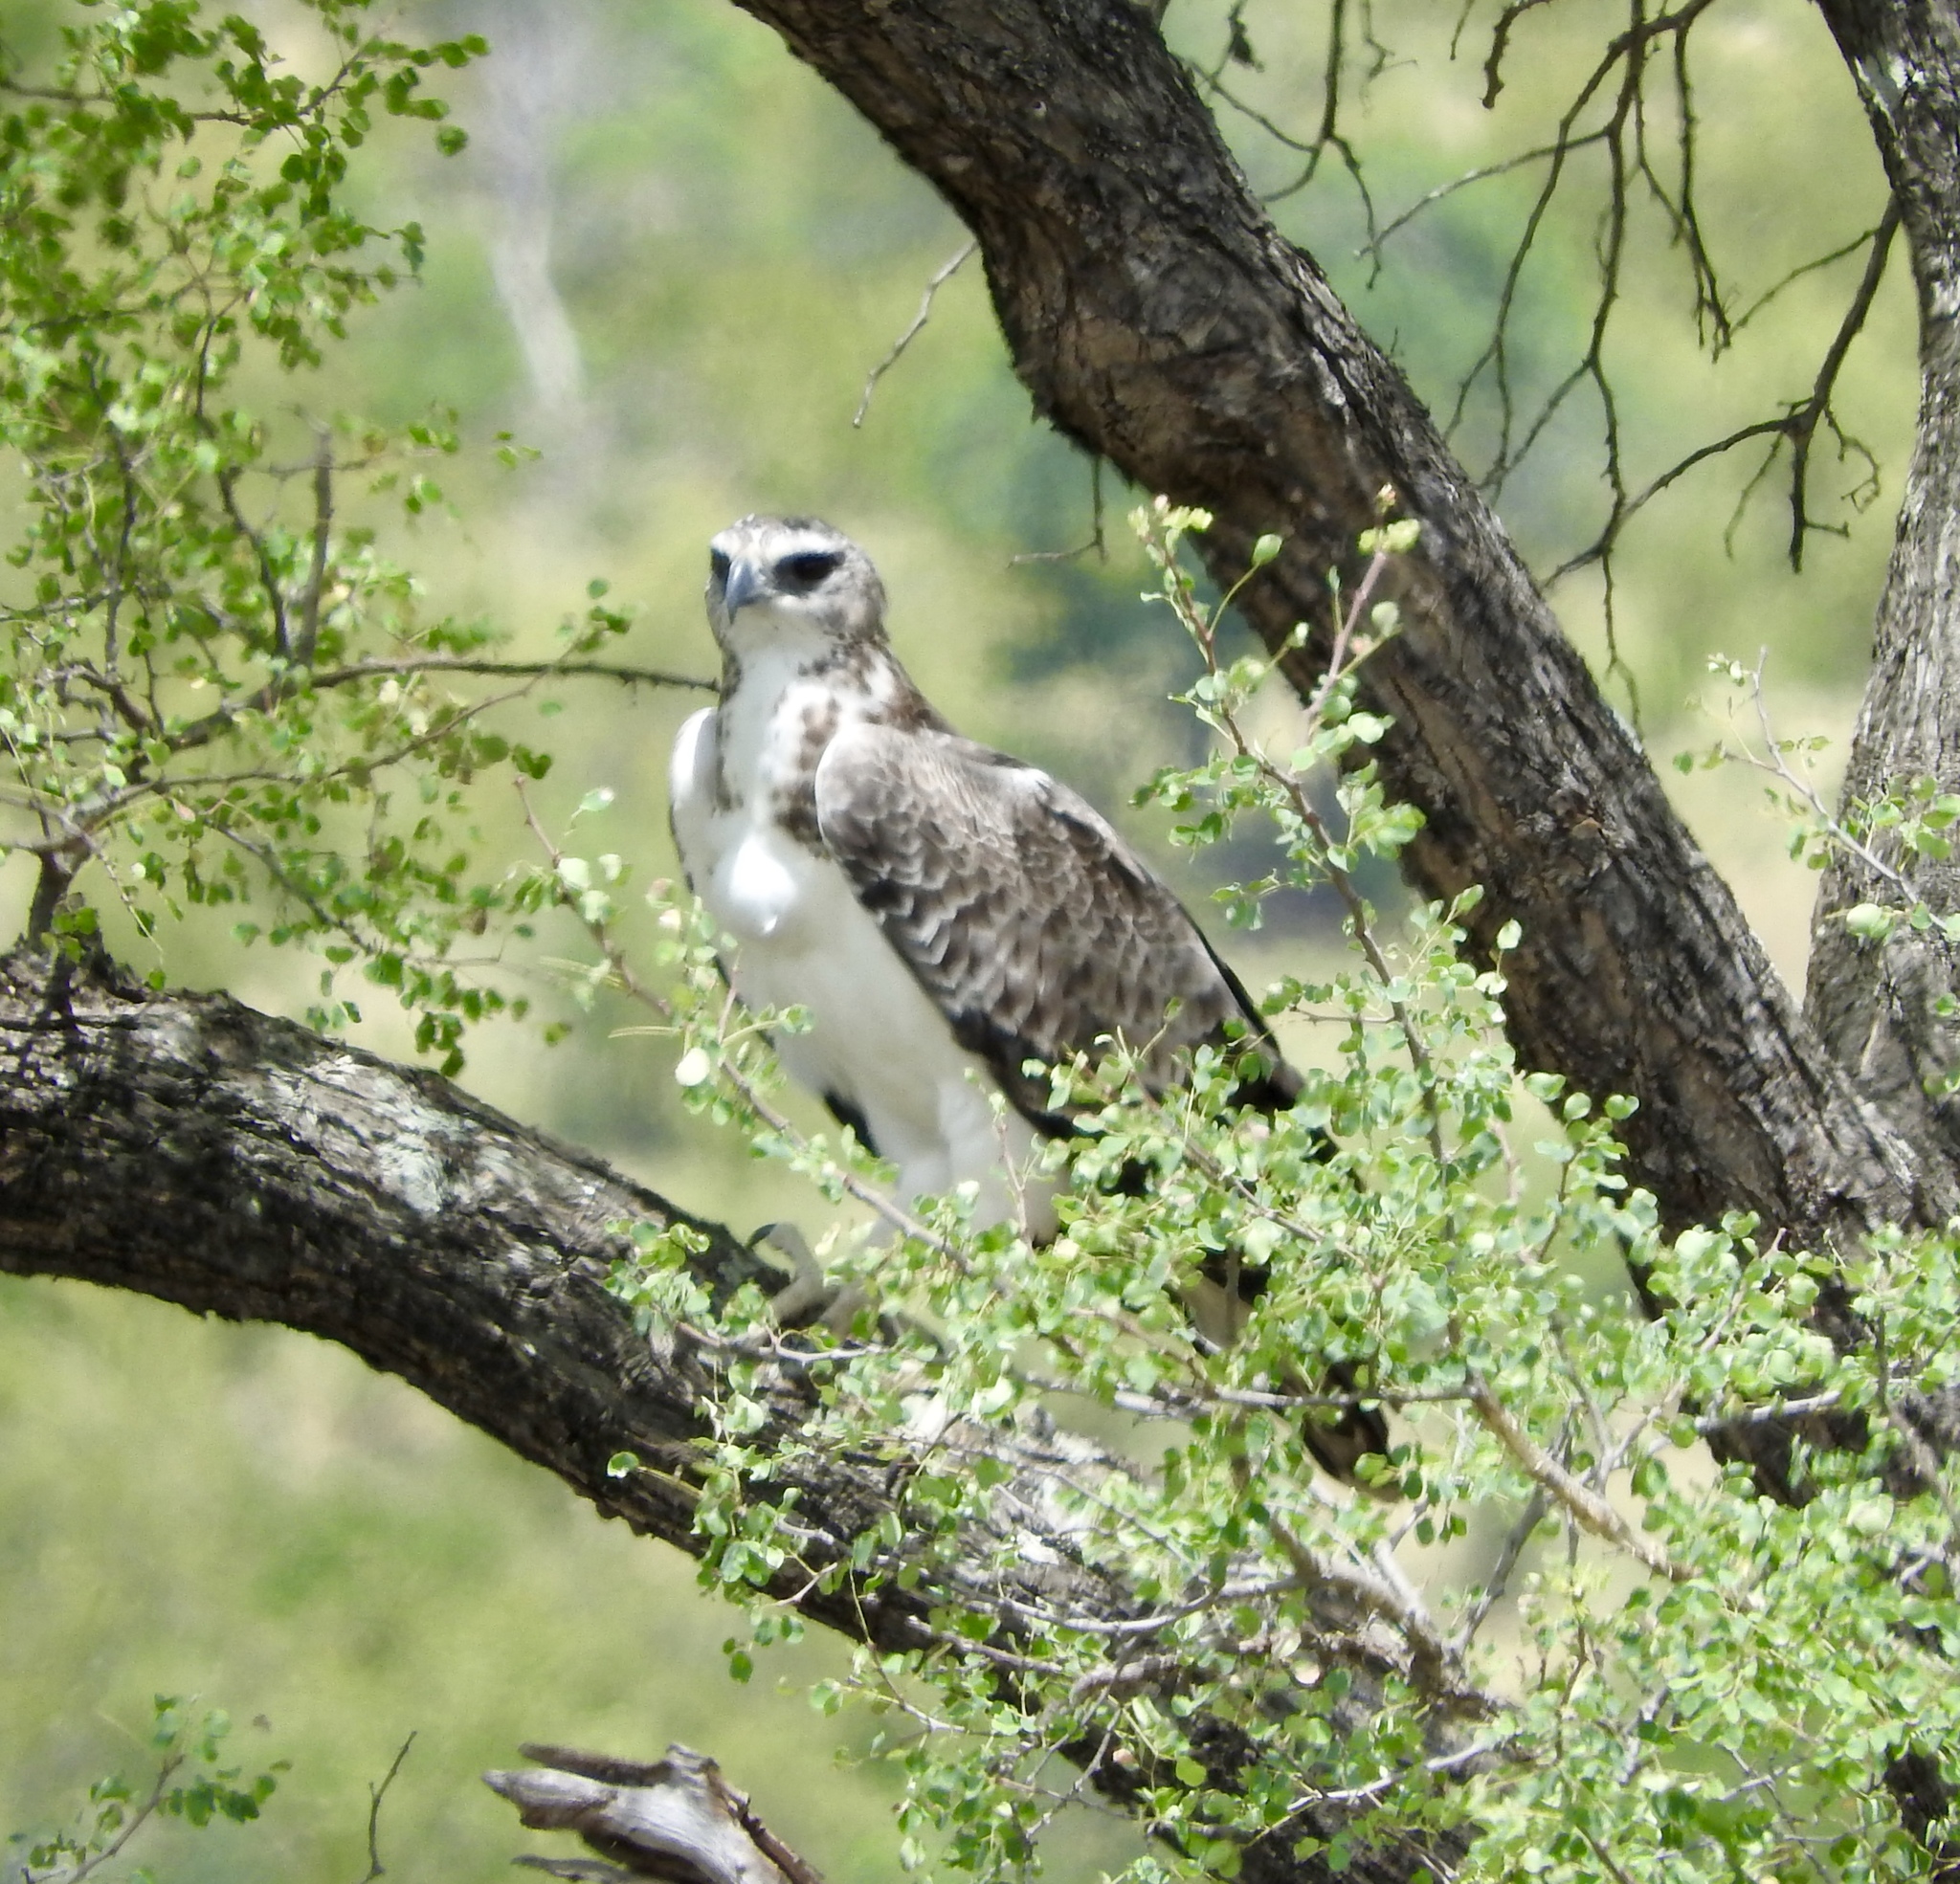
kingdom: Animalia
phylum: Chordata
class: Aves
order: Accipitriformes
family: Accipitridae
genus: Polemaetus
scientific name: Polemaetus bellicosus
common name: Martial eagle
